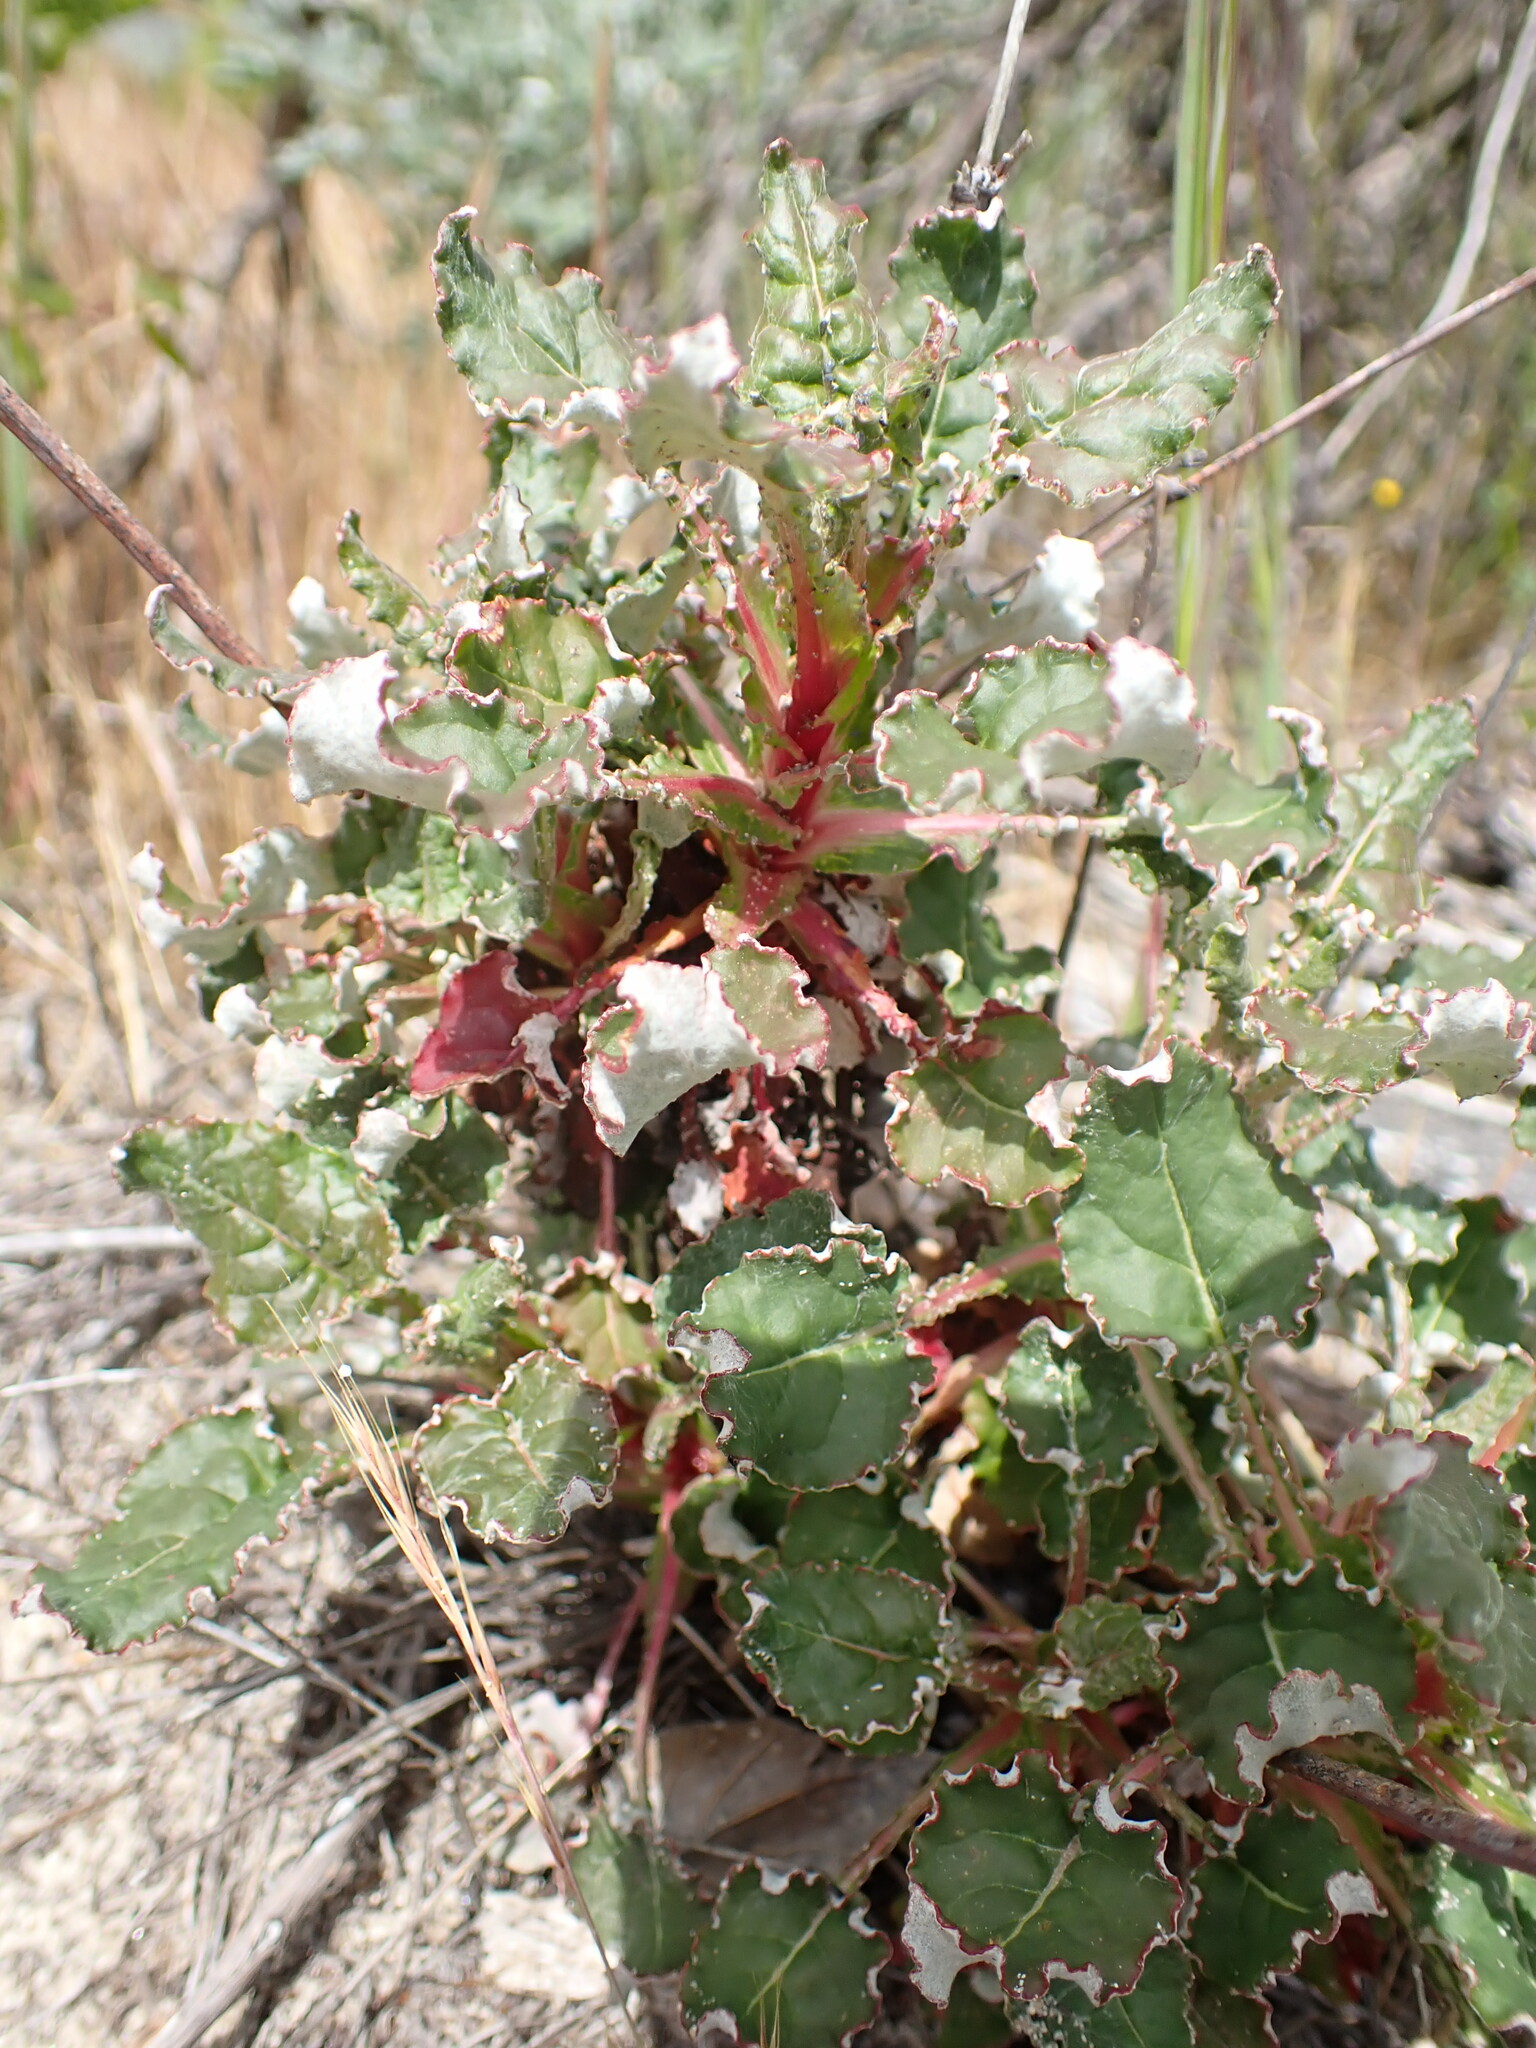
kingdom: Plantae
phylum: Tracheophyta
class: Magnoliopsida
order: Caryophyllales
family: Polygonaceae
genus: Eriogonum
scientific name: Eriogonum nudum
